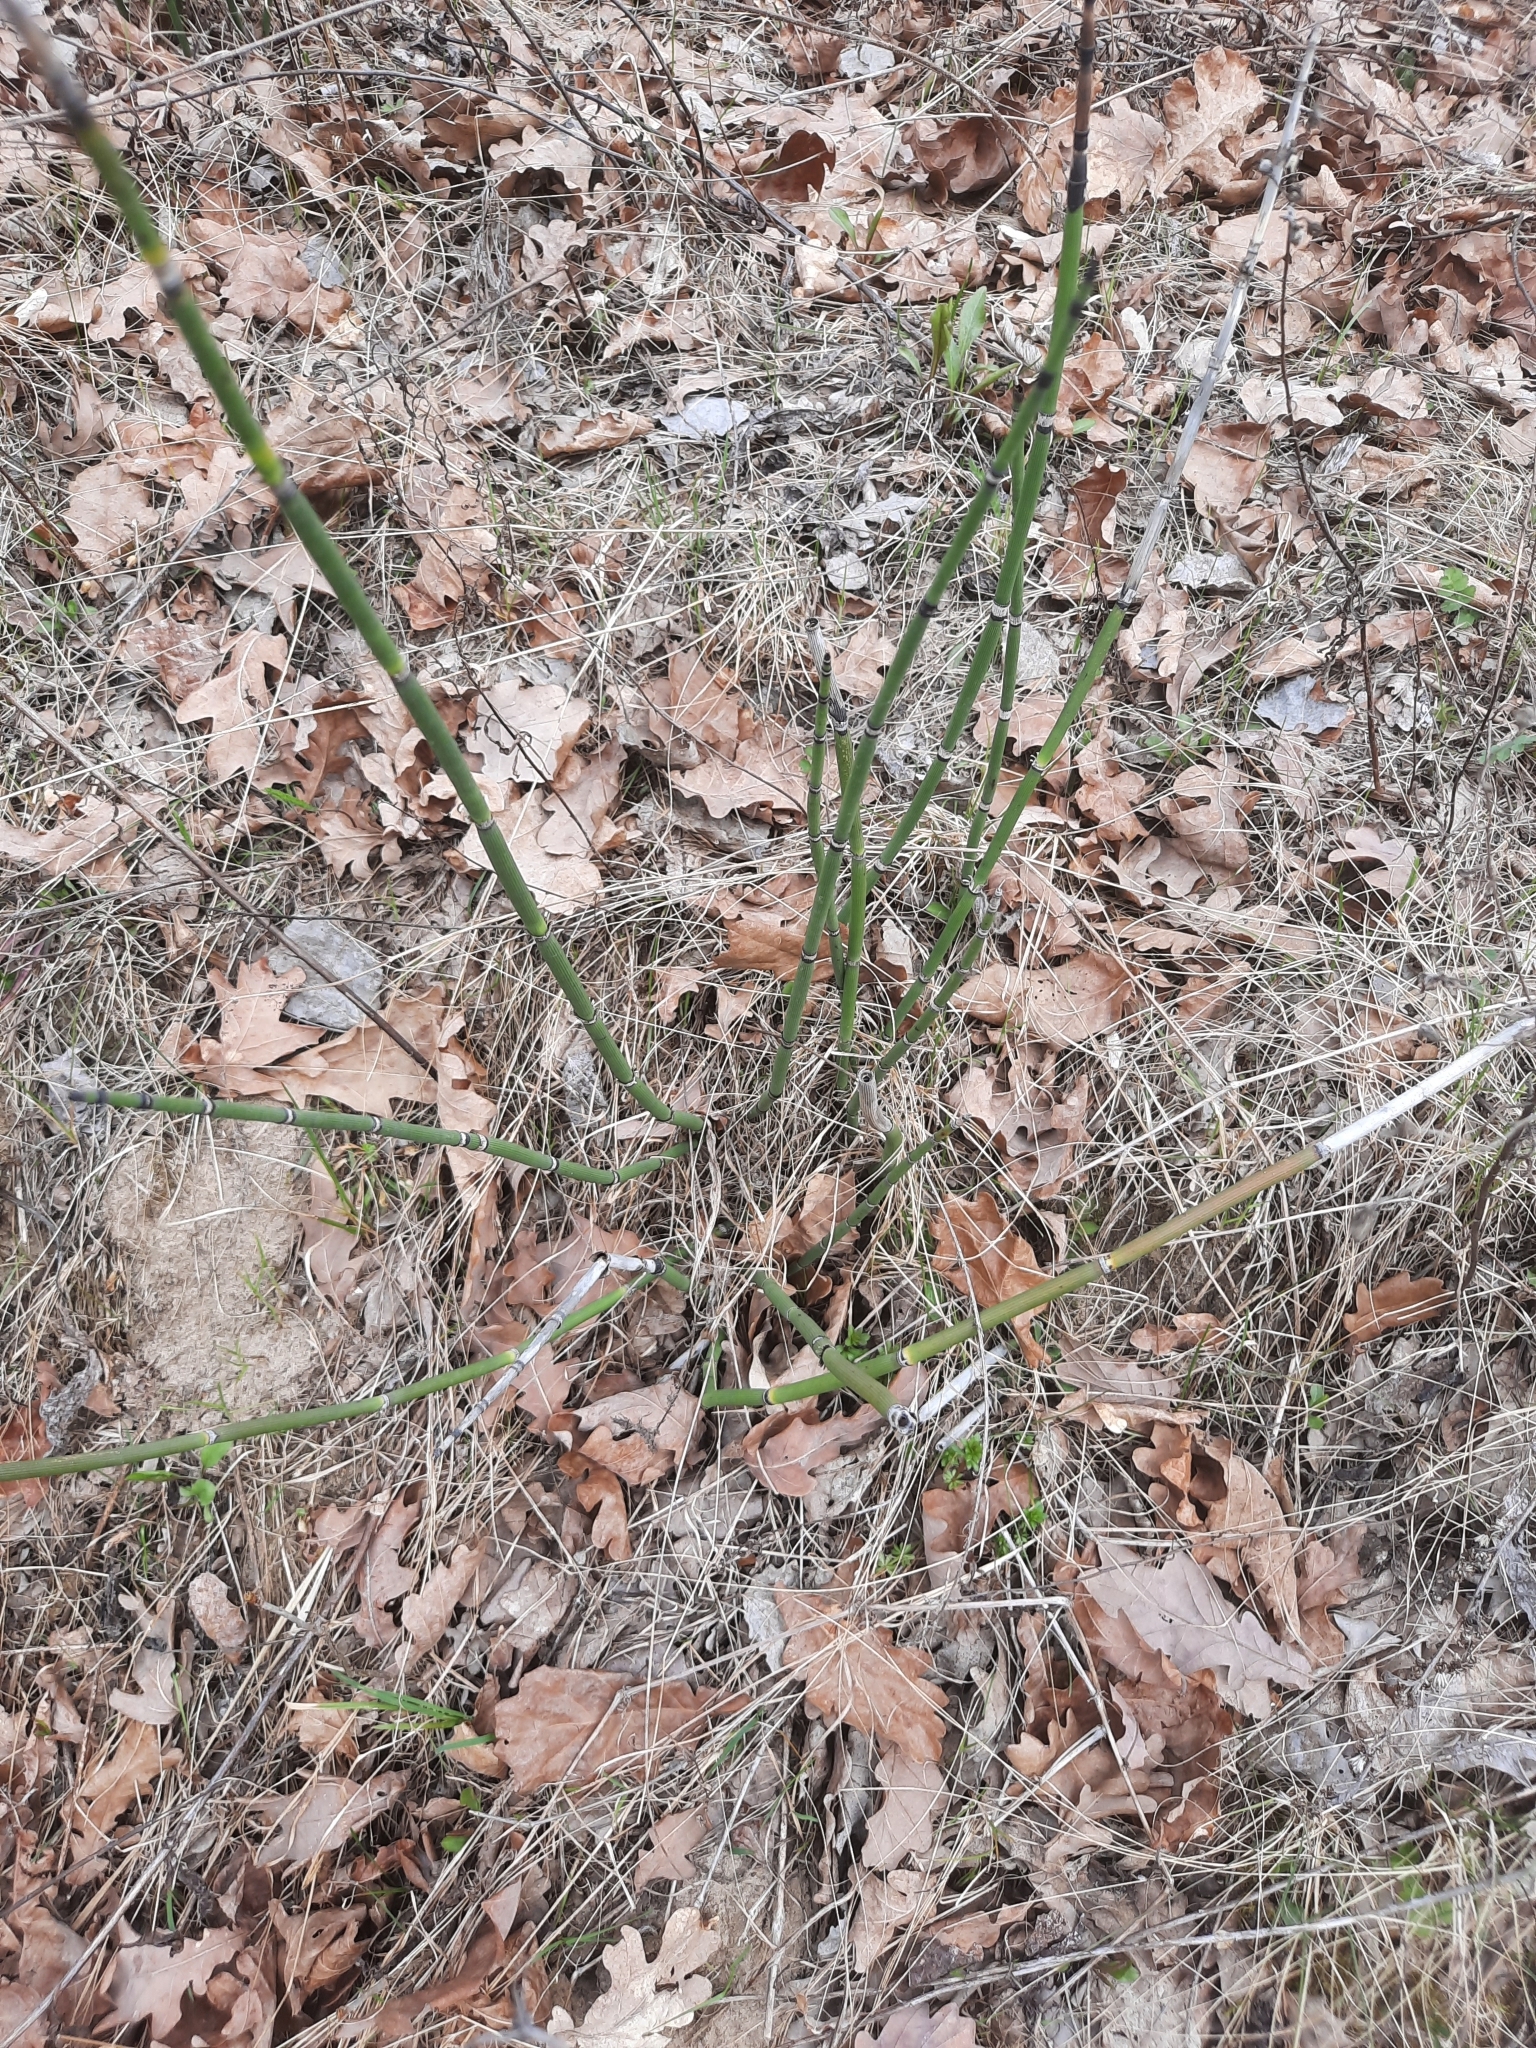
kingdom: Plantae
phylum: Tracheophyta
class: Polypodiopsida
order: Equisetales
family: Equisetaceae
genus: Equisetum
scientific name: Equisetum hyemale
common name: Rough horsetail
